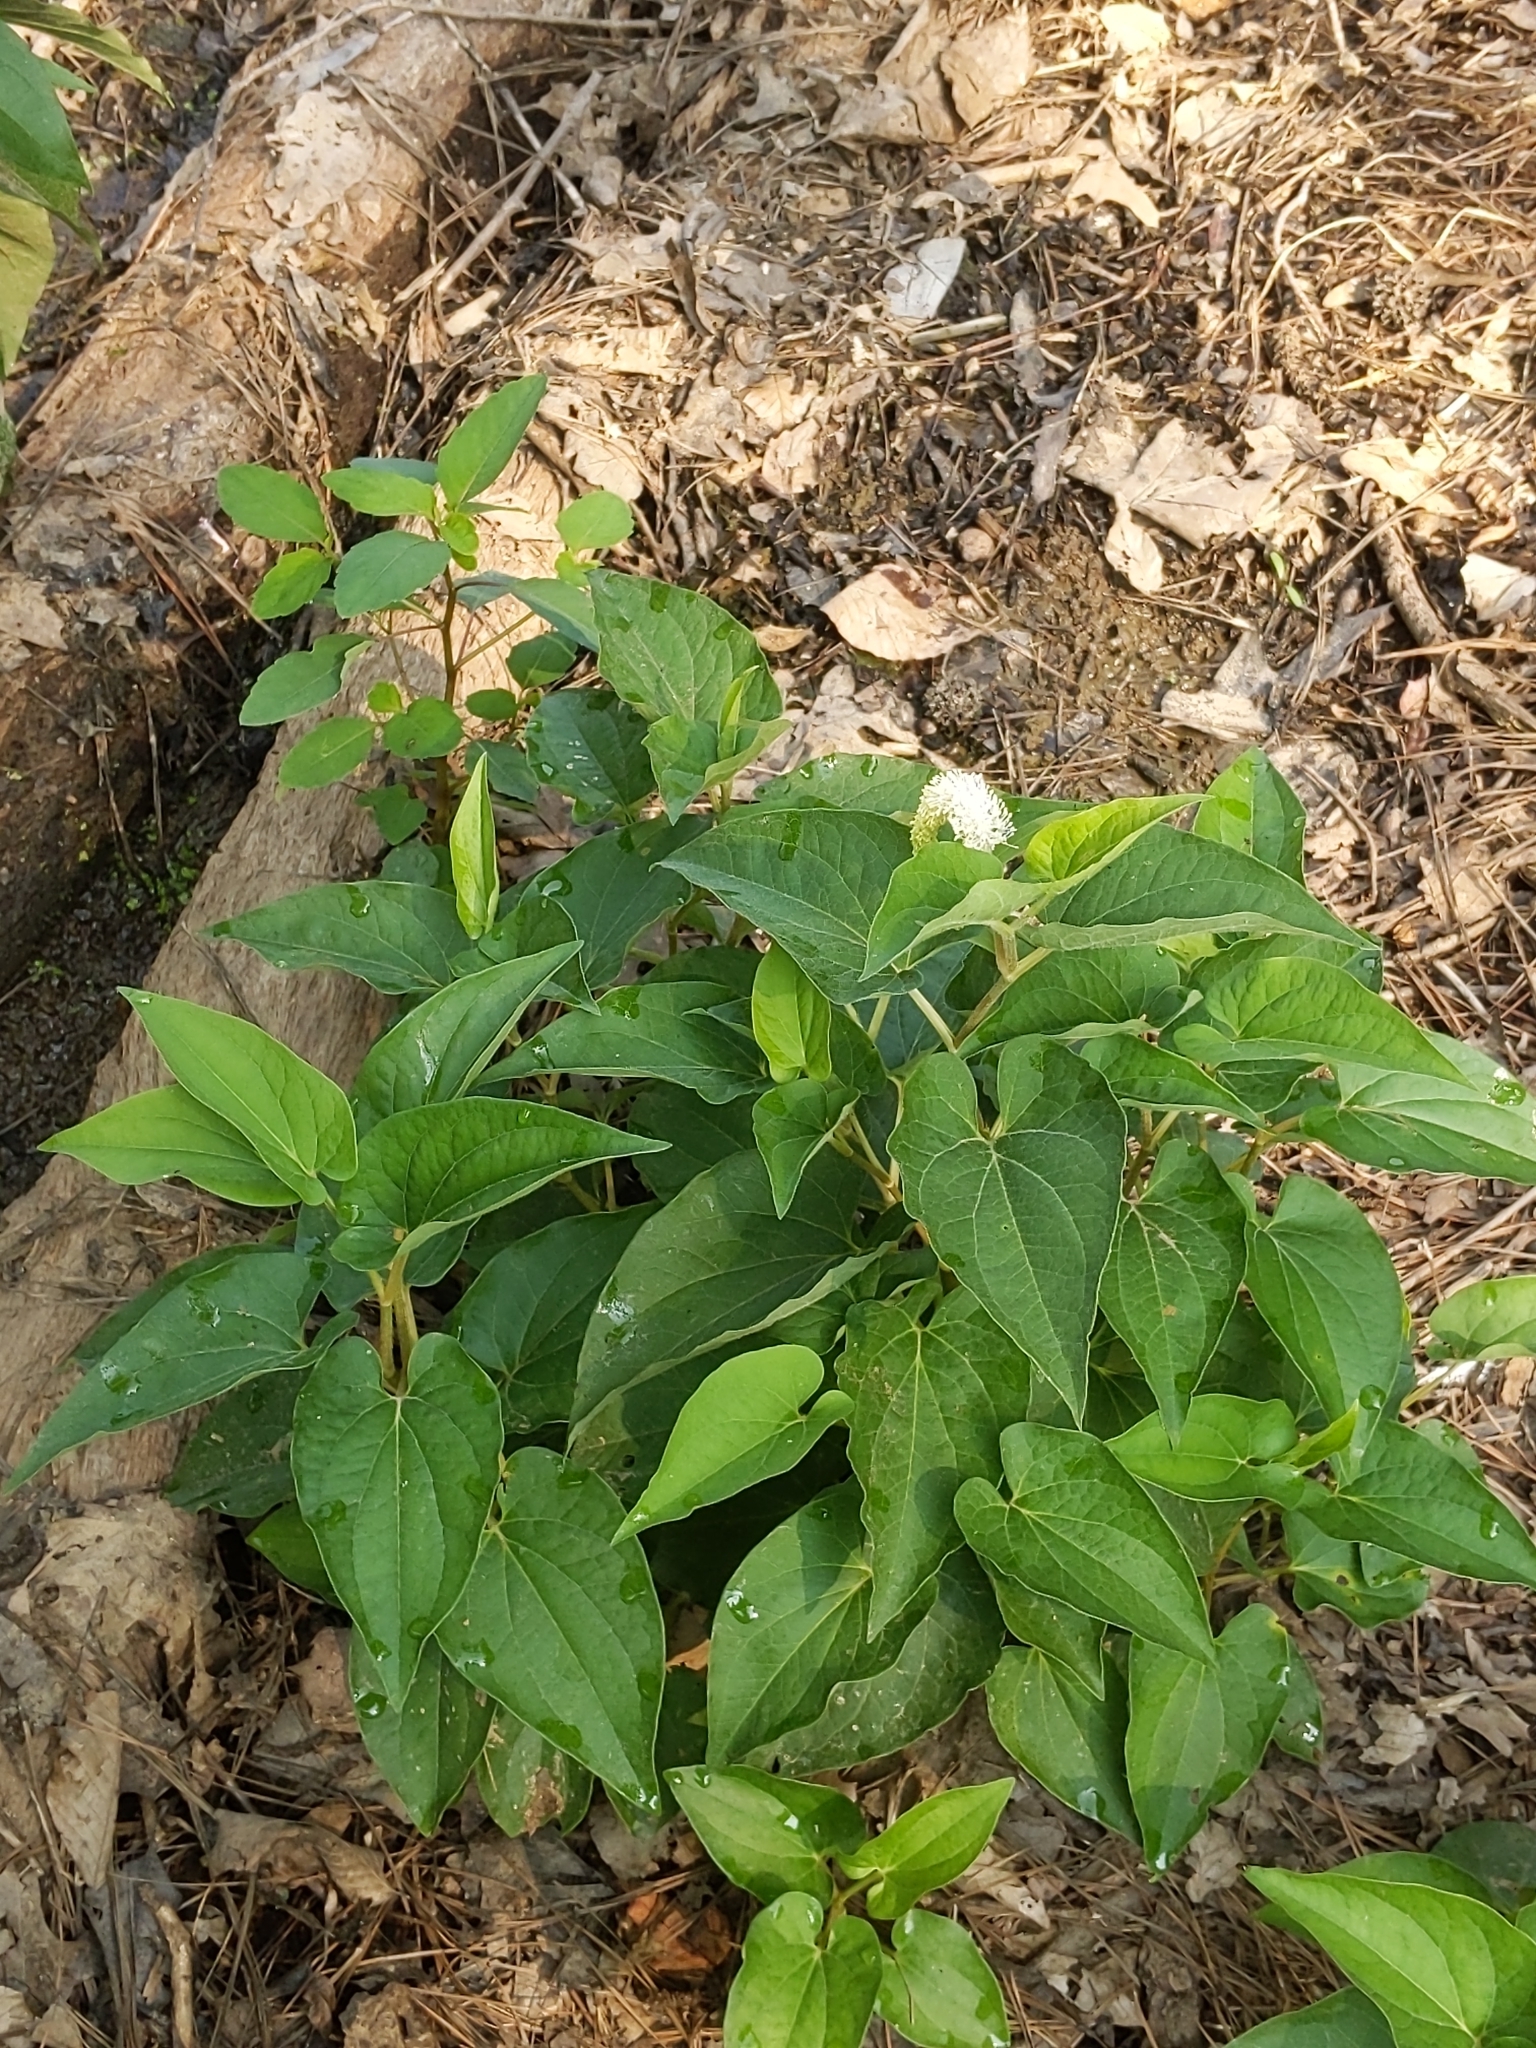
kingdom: Plantae
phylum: Tracheophyta
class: Magnoliopsida
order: Piperales
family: Saururaceae
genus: Saururus
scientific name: Saururus cernuus
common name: Lizard's-tail
